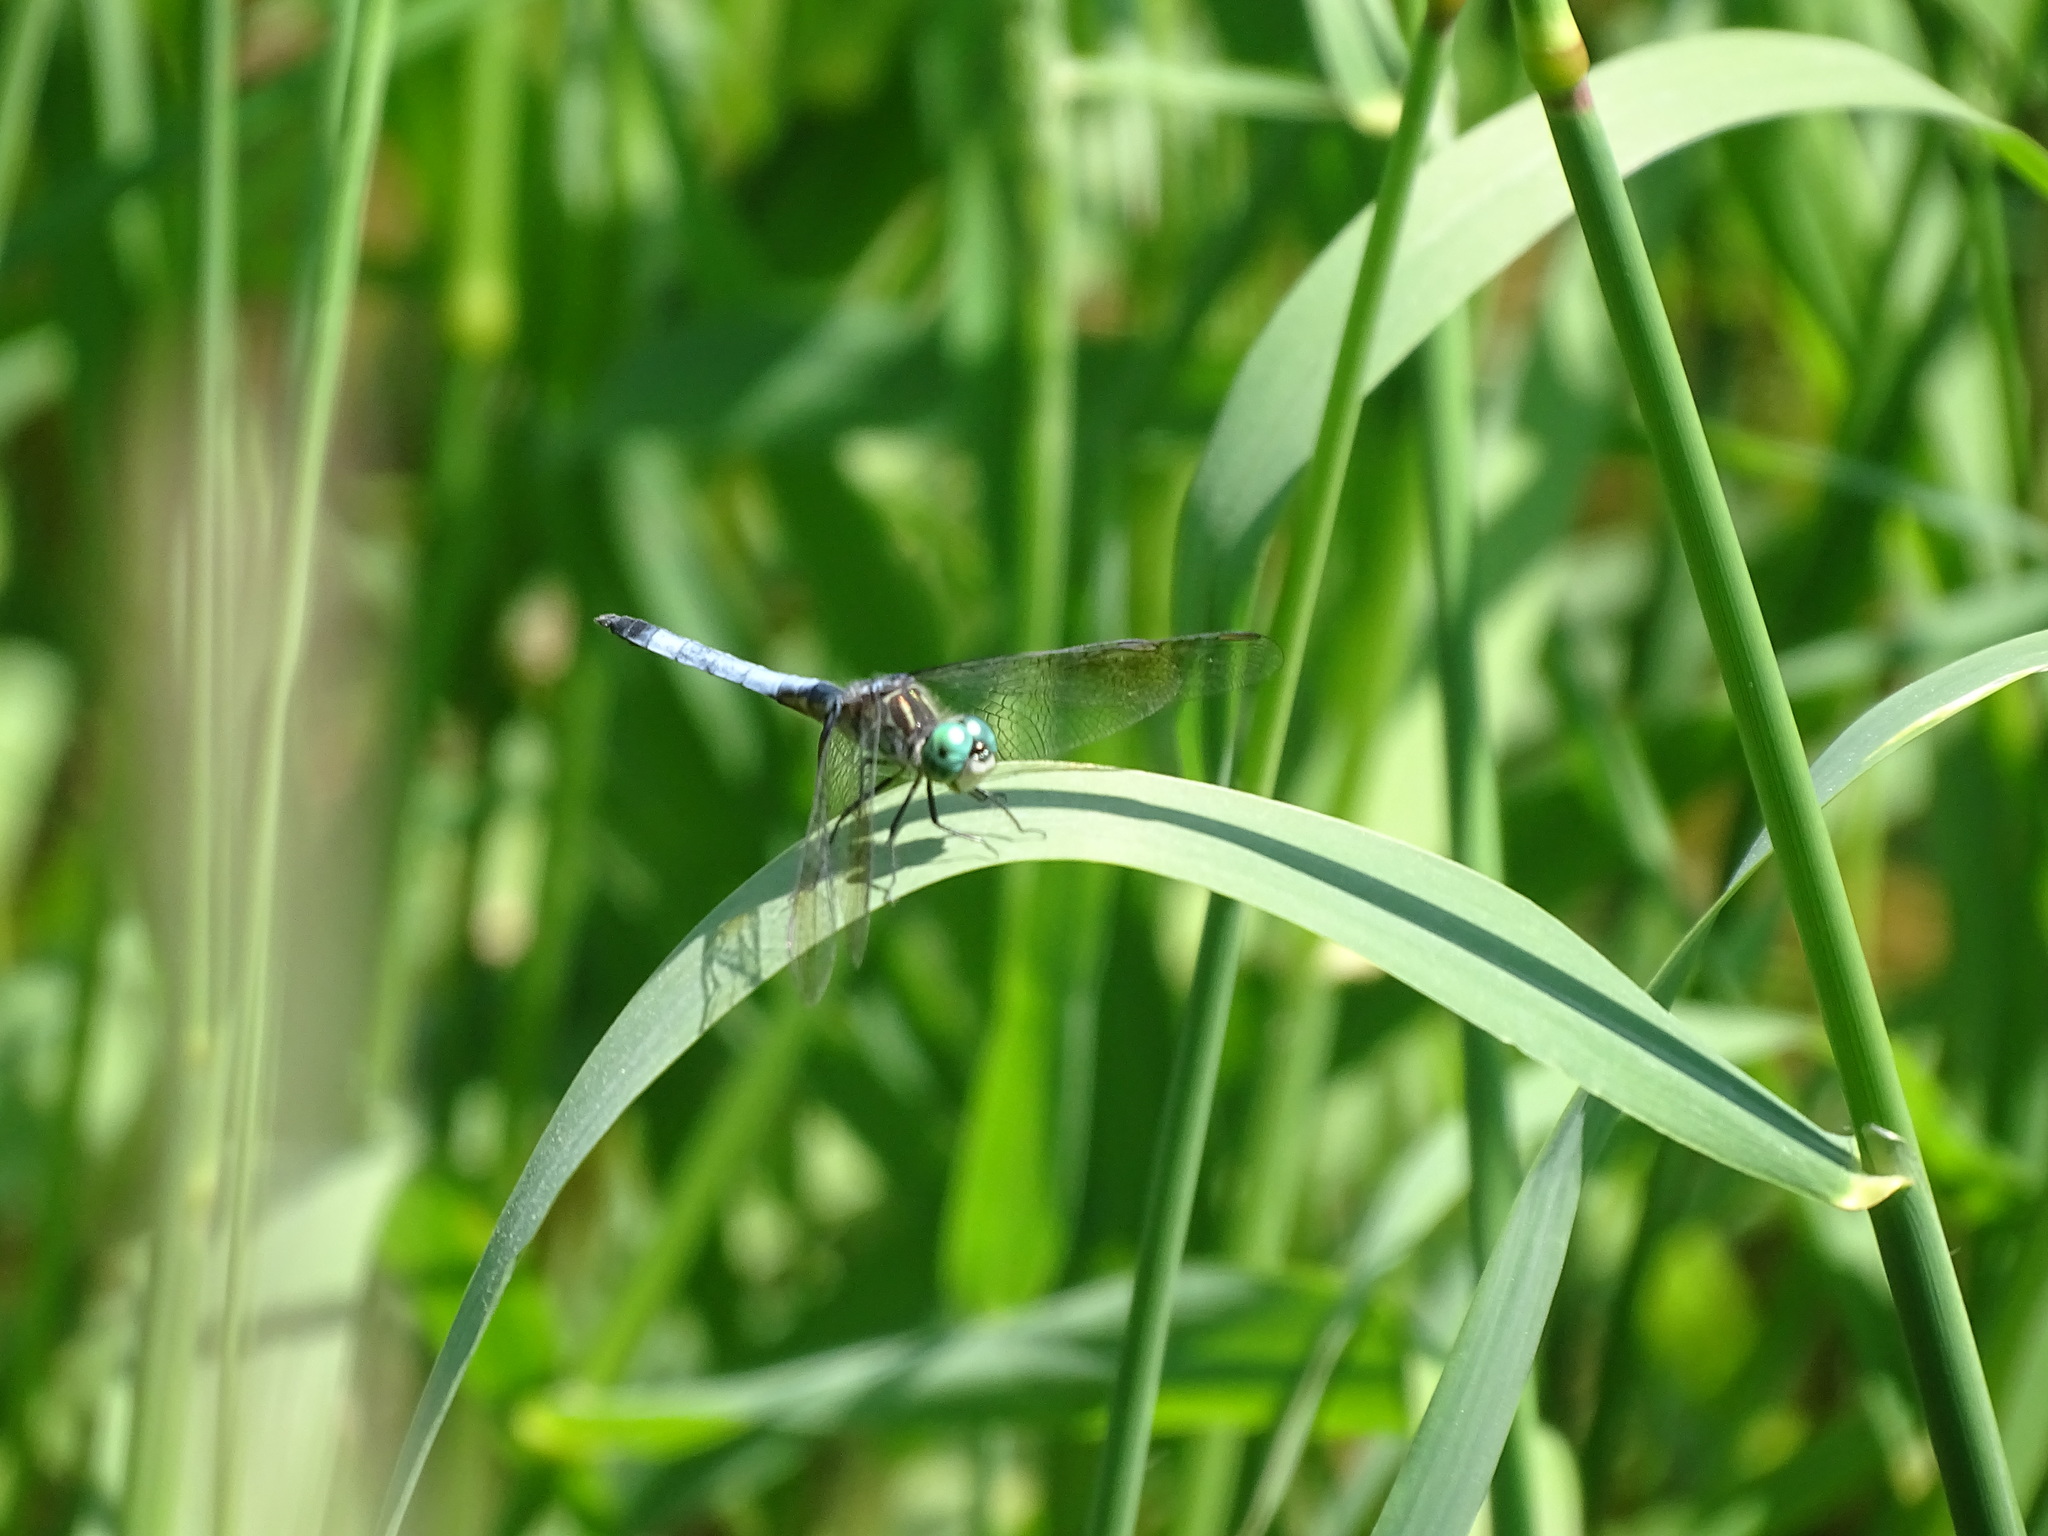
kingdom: Animalia
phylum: Arthropoda
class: Insecta
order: Odonata
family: Libellulidae
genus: Pachydiplax
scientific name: Pachydiplax longipennis
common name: Blue dasher
